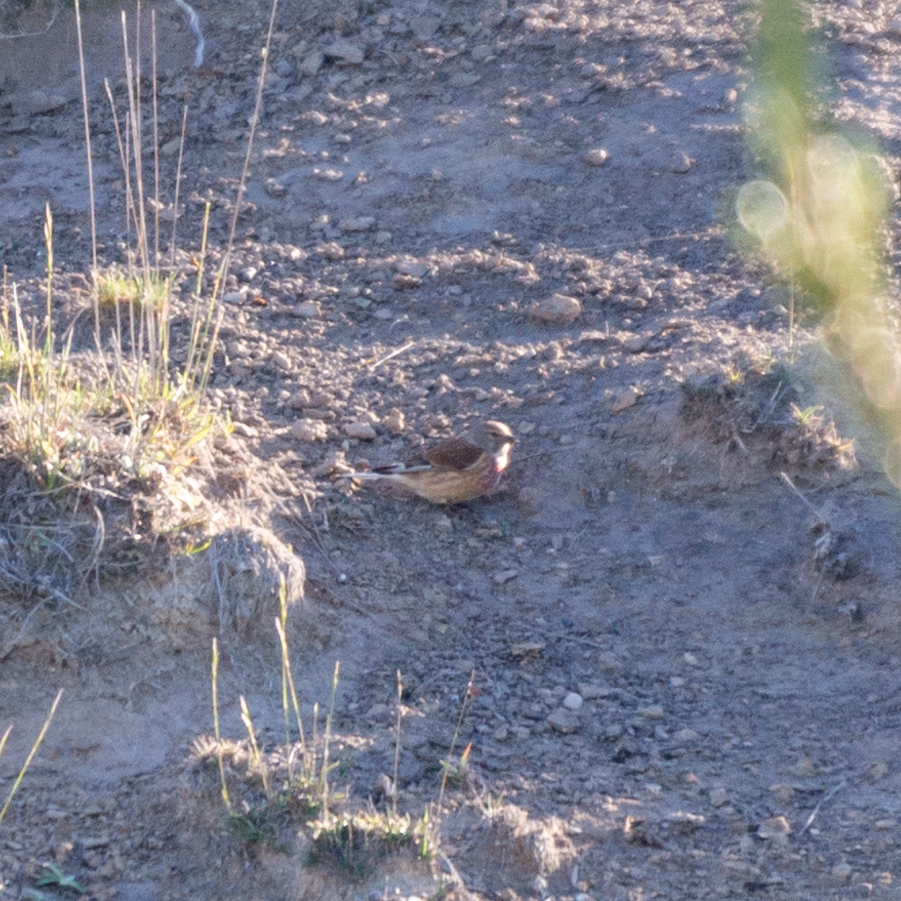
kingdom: Animalia
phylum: Chordata
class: Aves
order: Passeriformes
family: Fringillidae
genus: Linaria
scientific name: Linaria cannabina
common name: Common linnet
